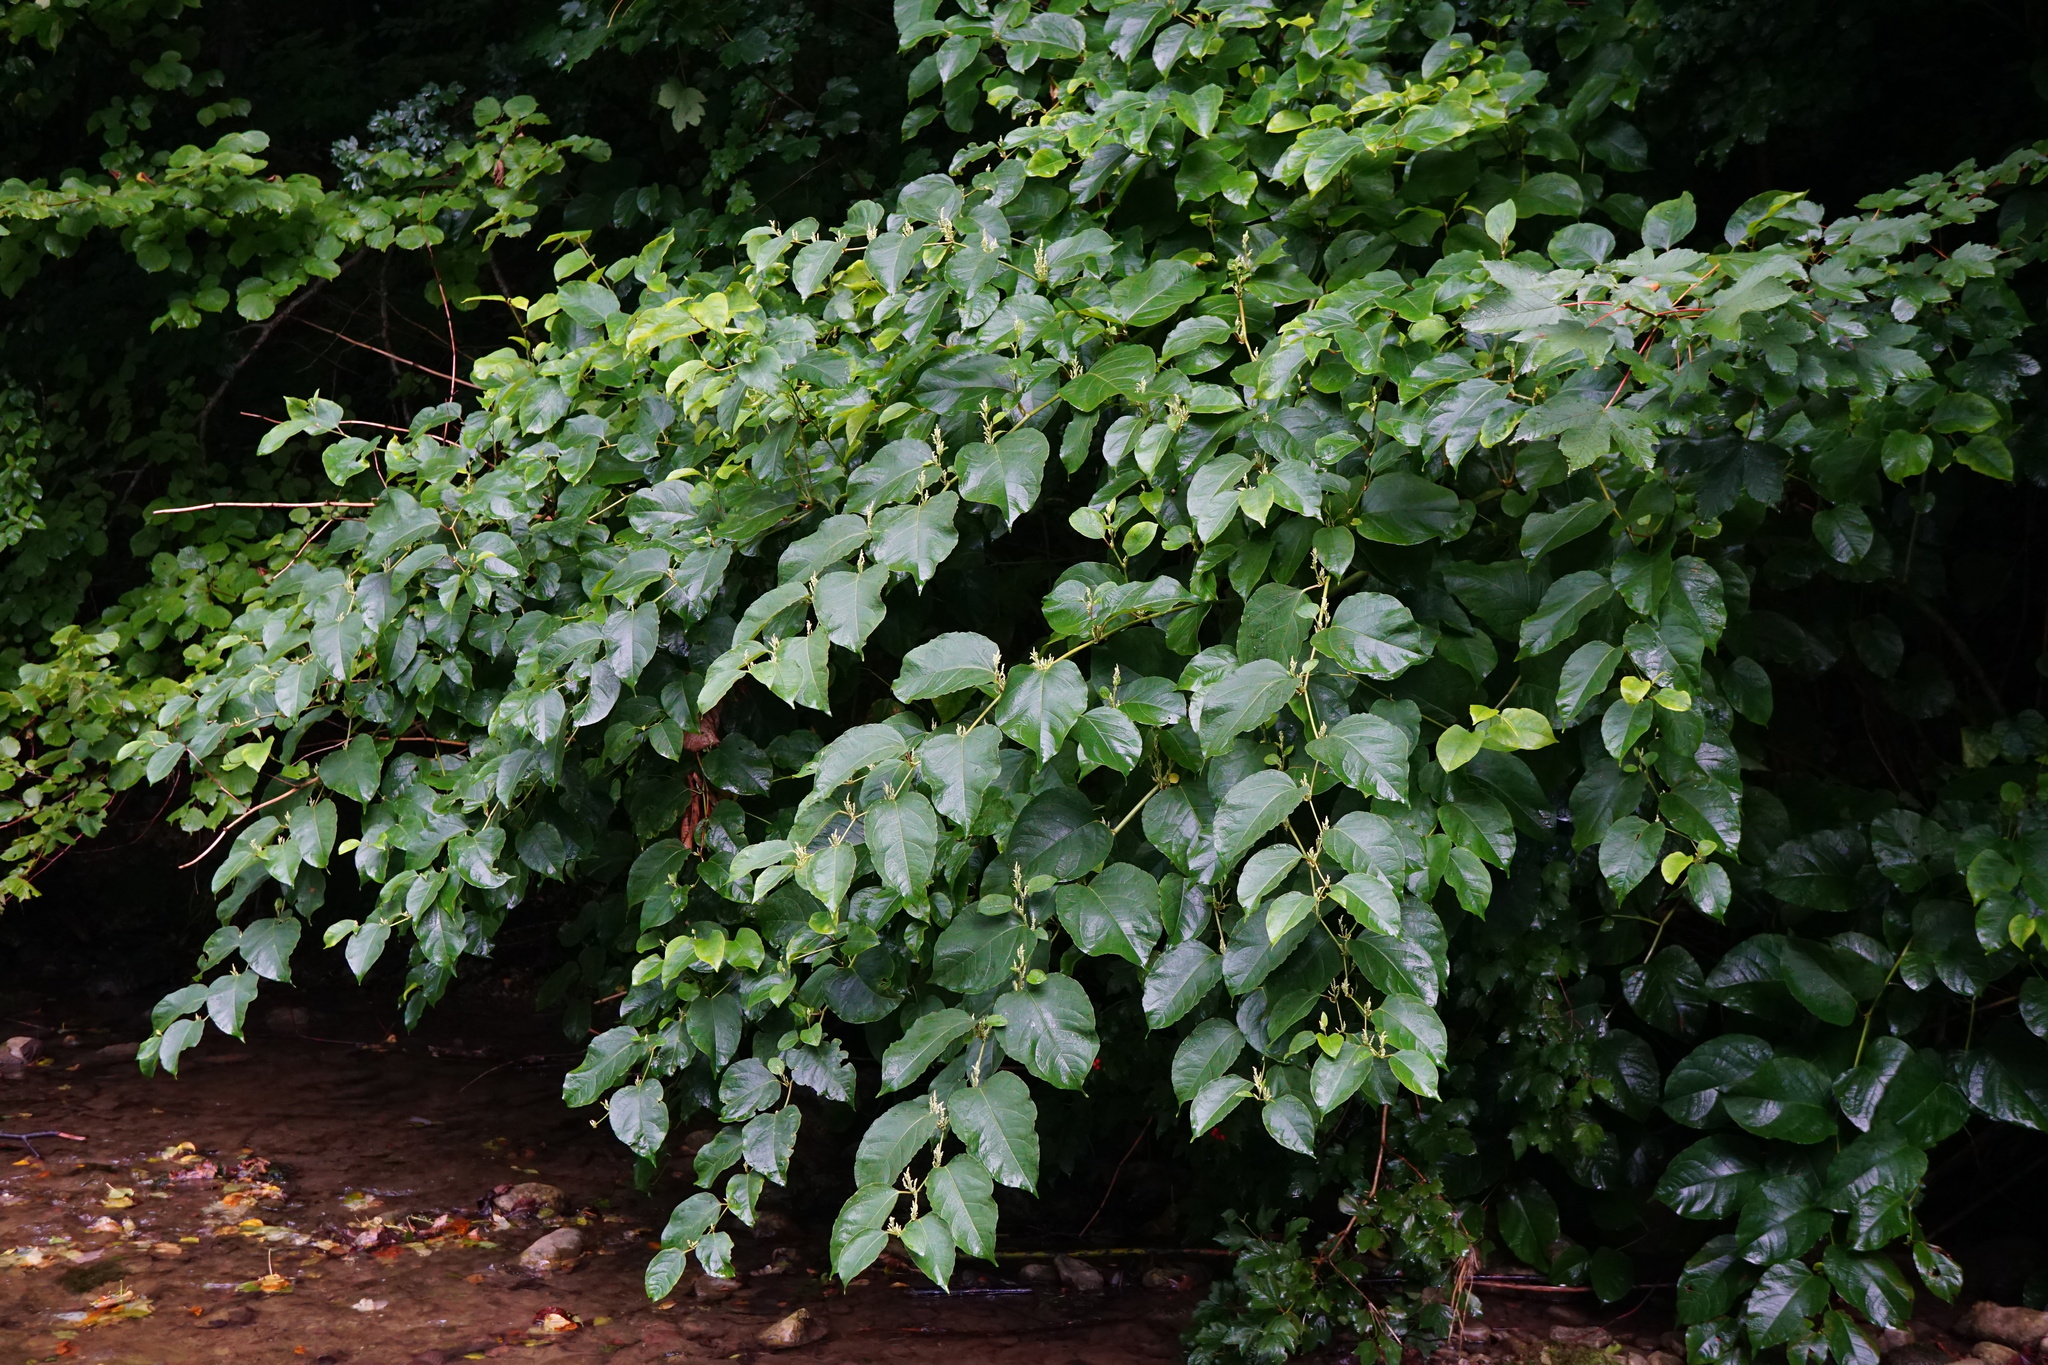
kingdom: Plantae
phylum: Tracheophyta
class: Magnoliopsida
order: Caryophyllales
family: Polygonaceae
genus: Reynoutria
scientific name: Reynoutria bohemica
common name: Bohemian knotweed
